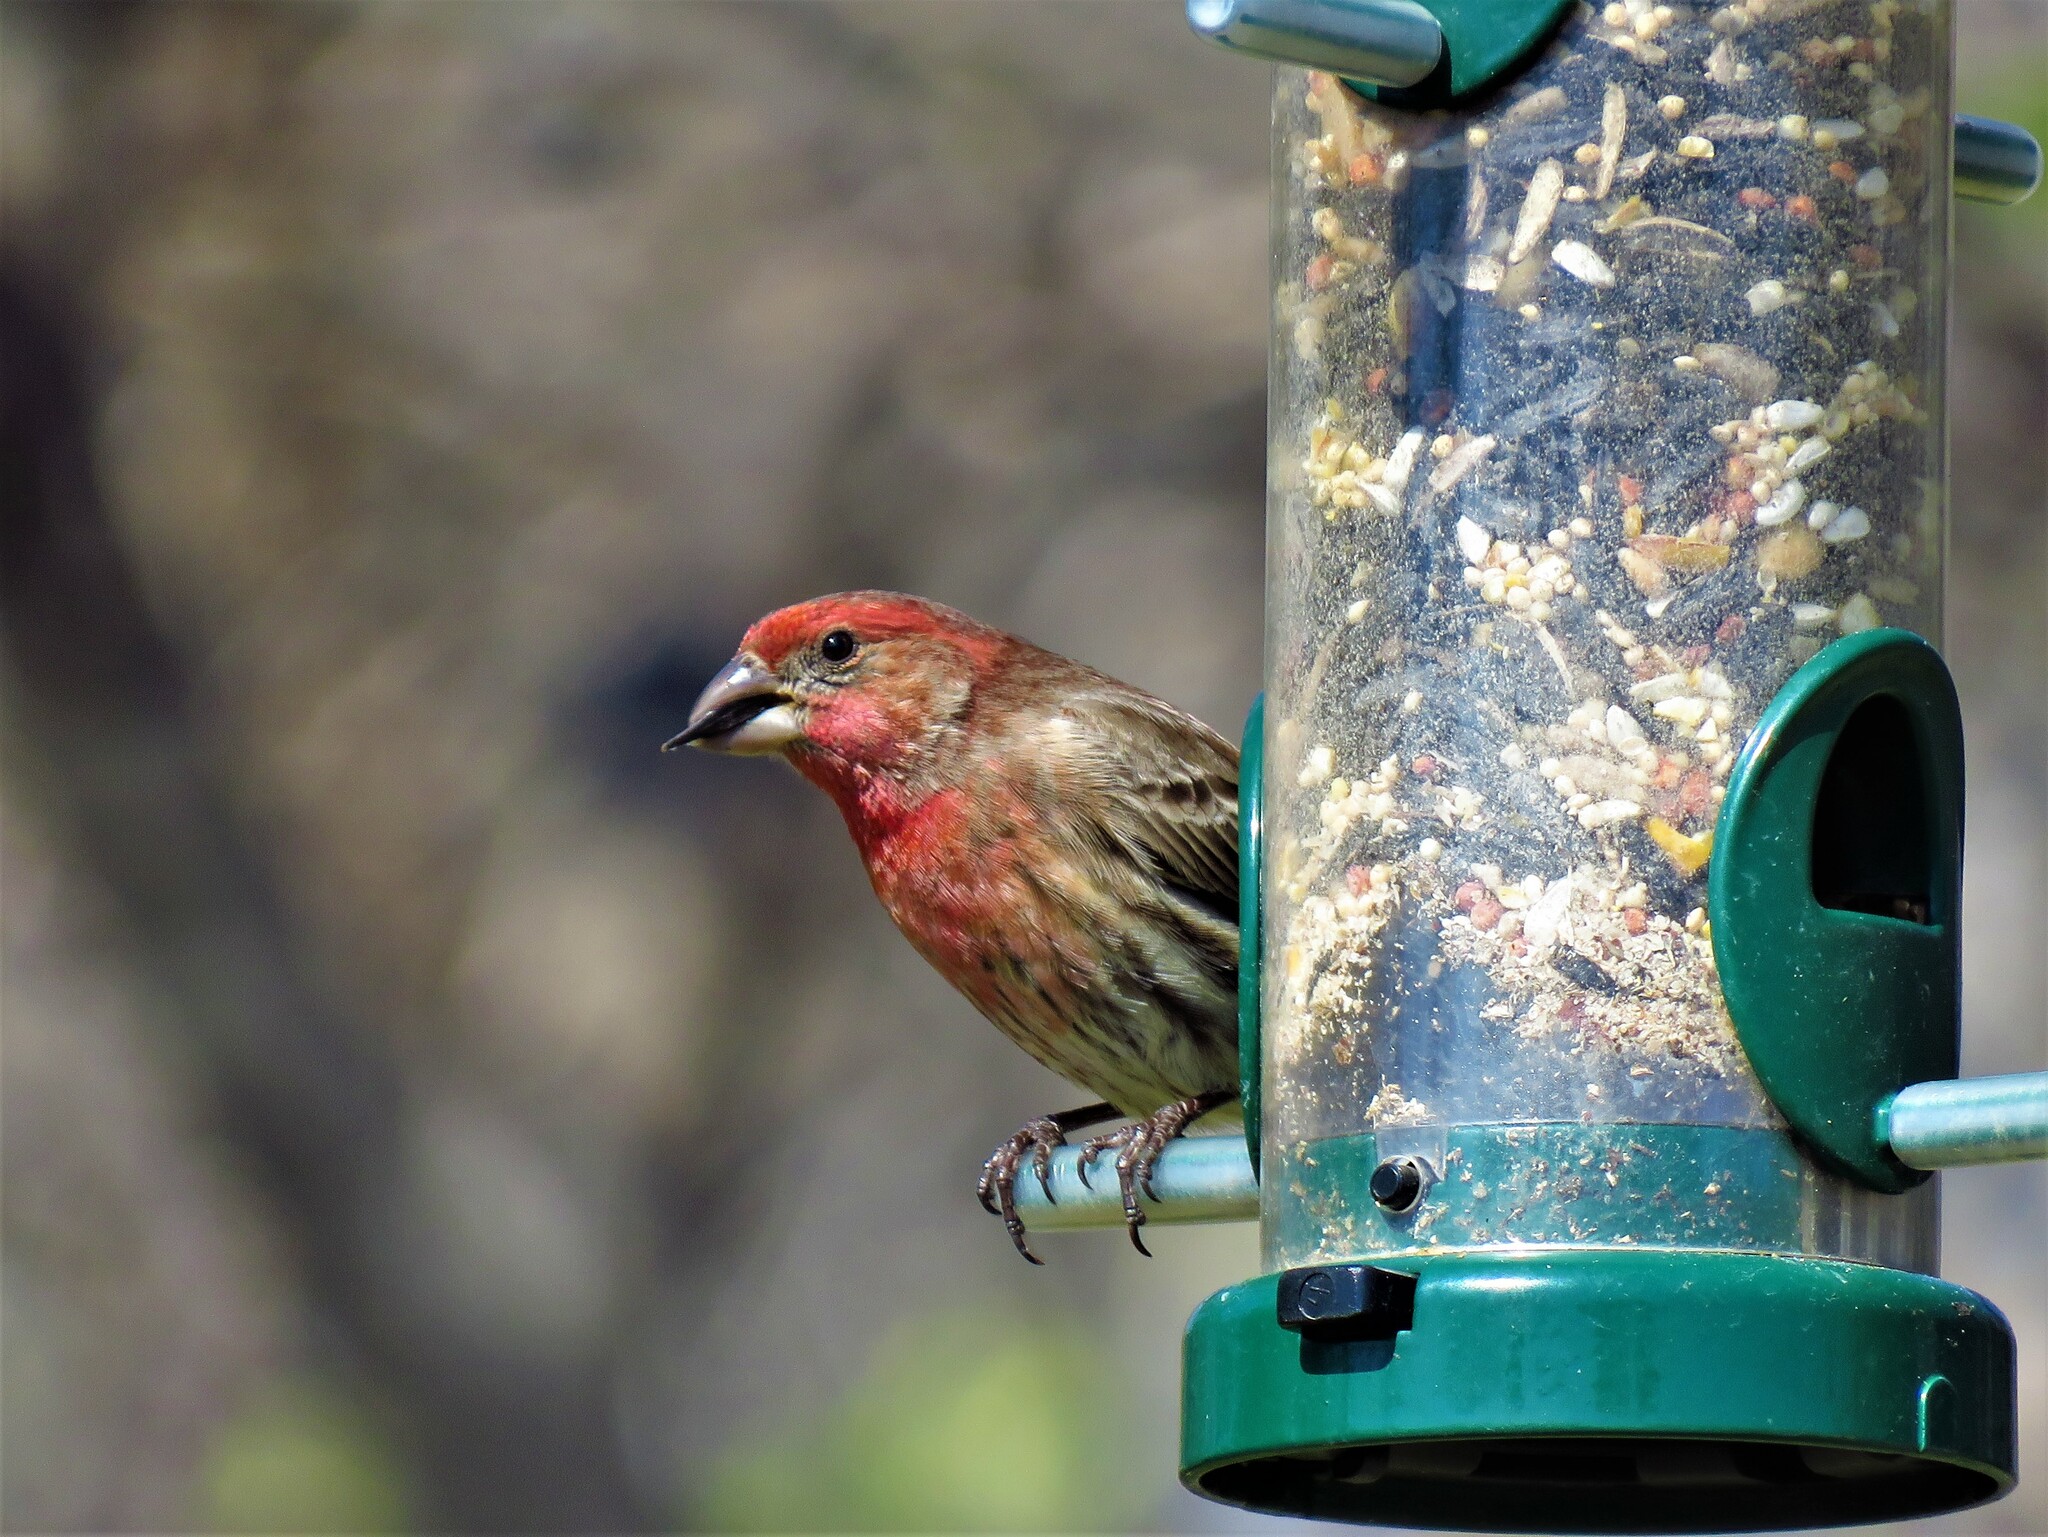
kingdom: Animalia
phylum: Chordata
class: Aves
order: Passeriformes
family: Fringillidae
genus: Haemorhous
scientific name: Haemorhous mexicanus
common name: House finch
